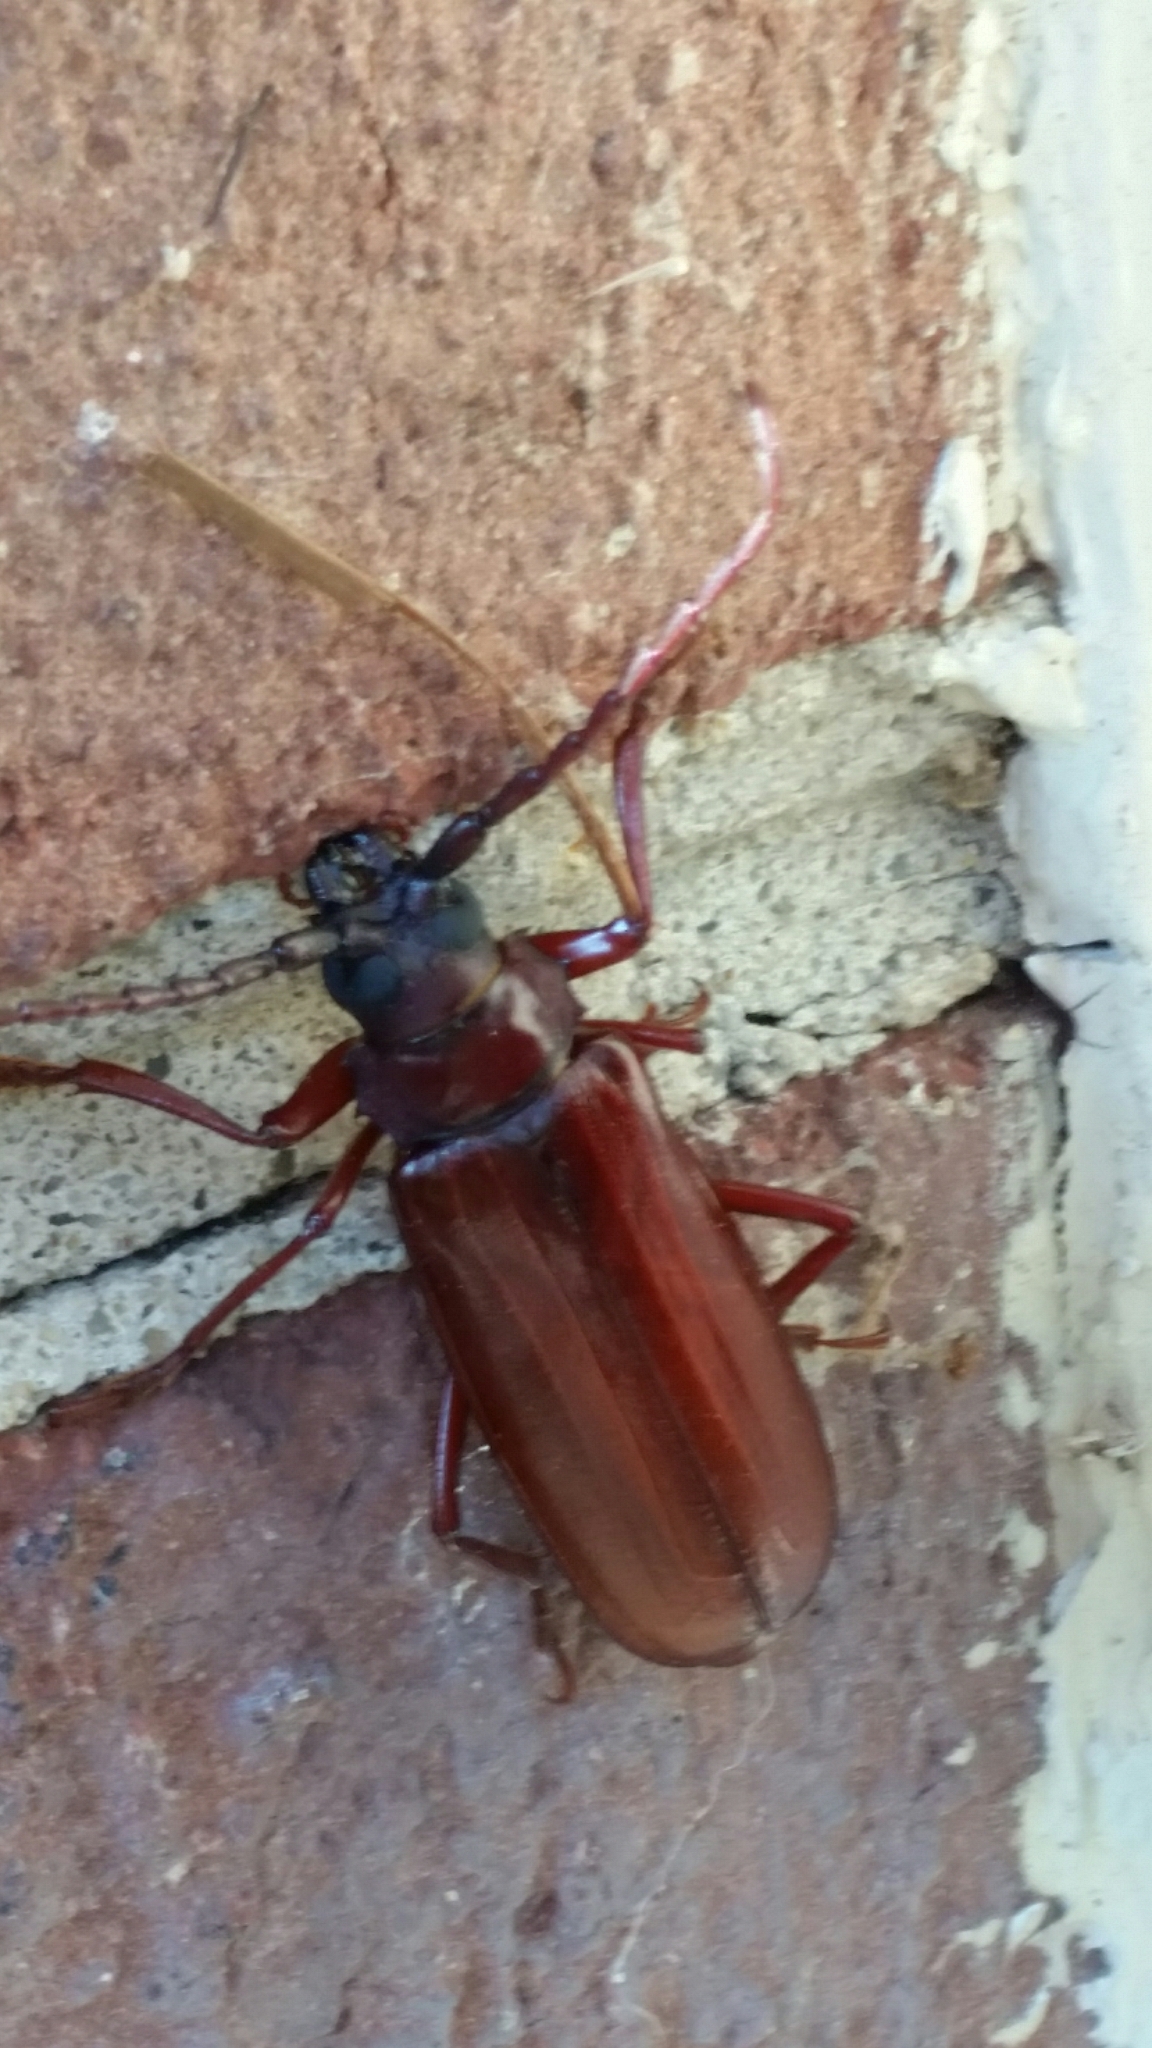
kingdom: Animalia
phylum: Arthropoda
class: Insecta
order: Coleoptera
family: Cerambycidae
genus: Orthosoma
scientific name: Orthosoma brunneum
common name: Brown prionid beetle
